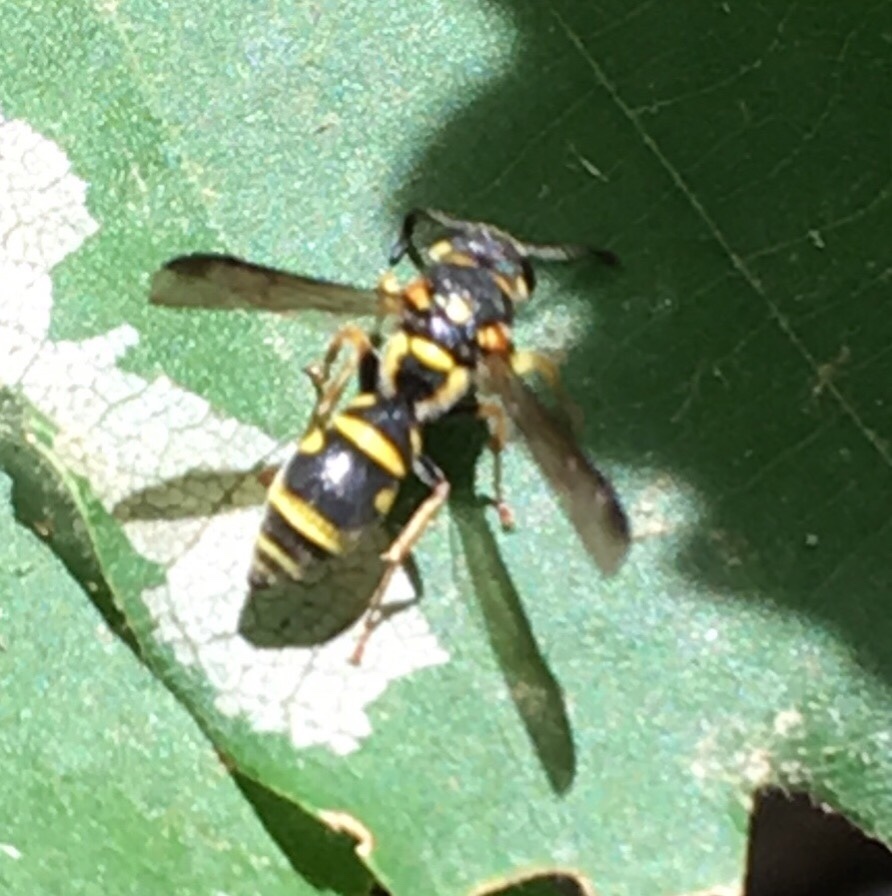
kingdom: Animalia
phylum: Arthropoda
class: Insecta
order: Hymenoptera
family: Eumenidae
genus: Parancistrocerus
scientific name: Parancistrocerus
